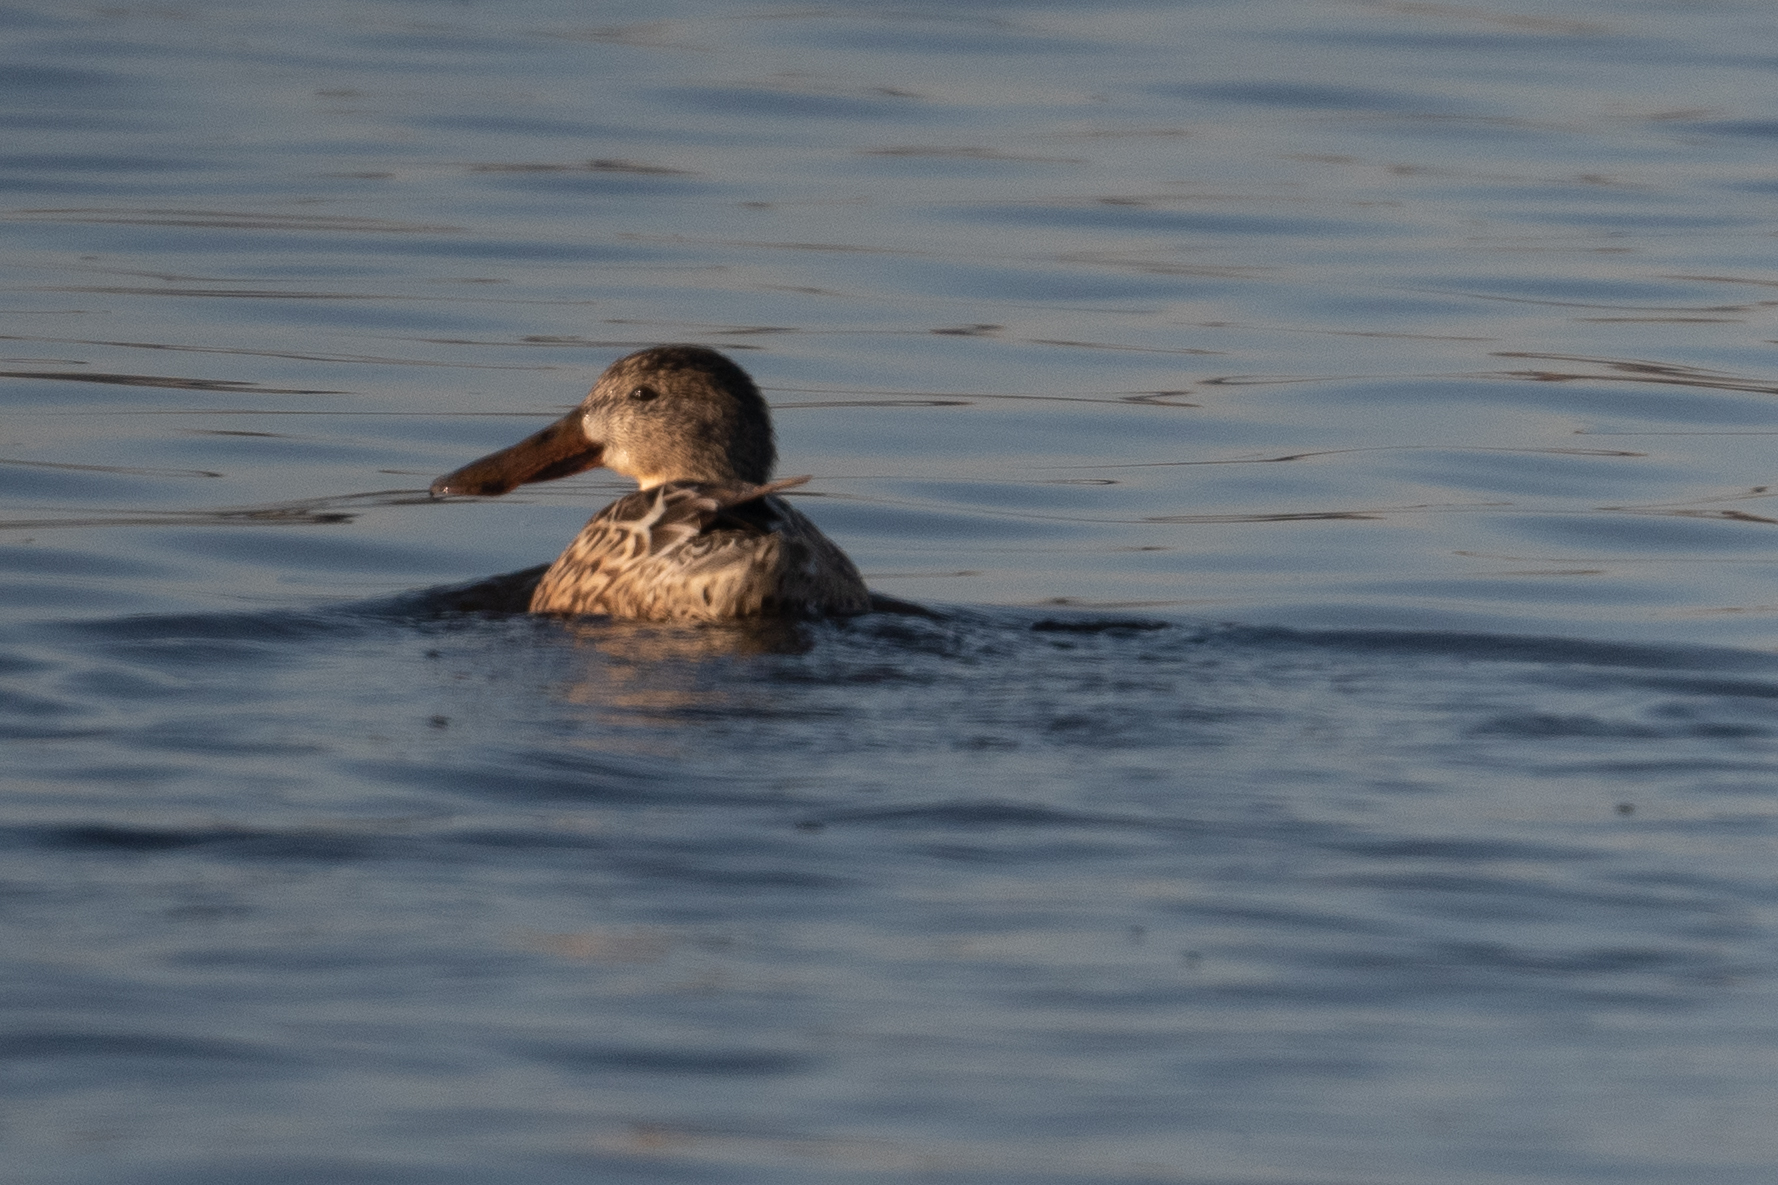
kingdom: Animalia
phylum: Chordata
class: Aves
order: Anseriformes
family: Anatidae
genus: Spatula
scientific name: Spatula clypeata
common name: Northern shoveler
